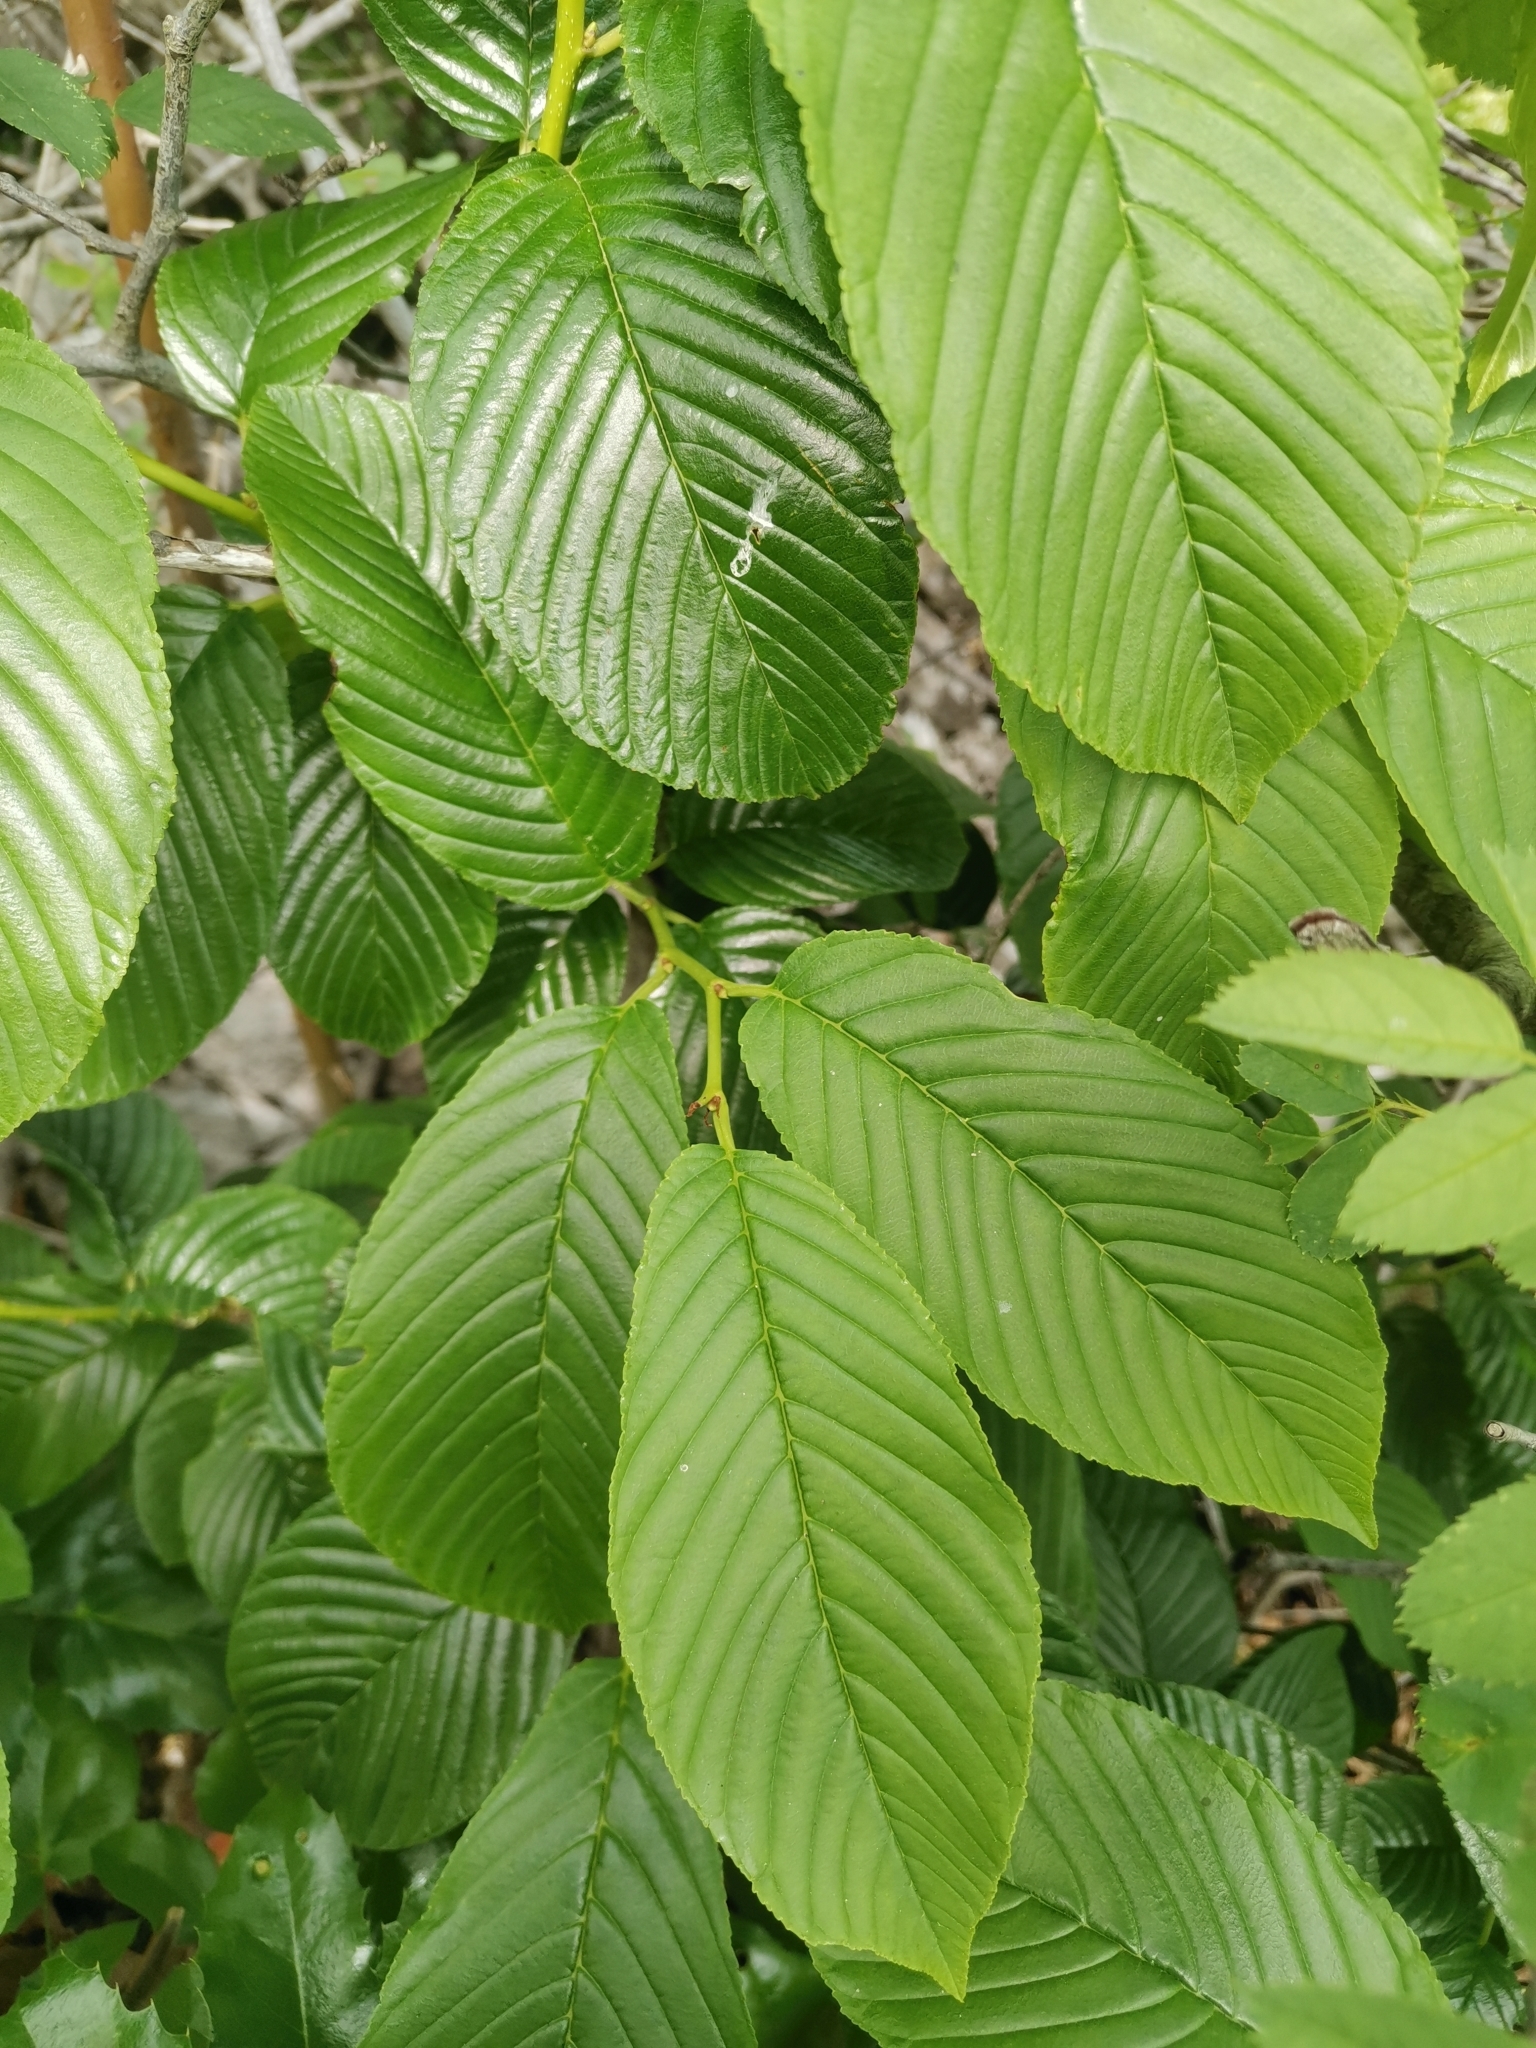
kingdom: Plantae
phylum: Tracheophyta
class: Magnoliopsida
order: Rosales
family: Rhamnaceae
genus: Atadinus
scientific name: Atadinus fallax
